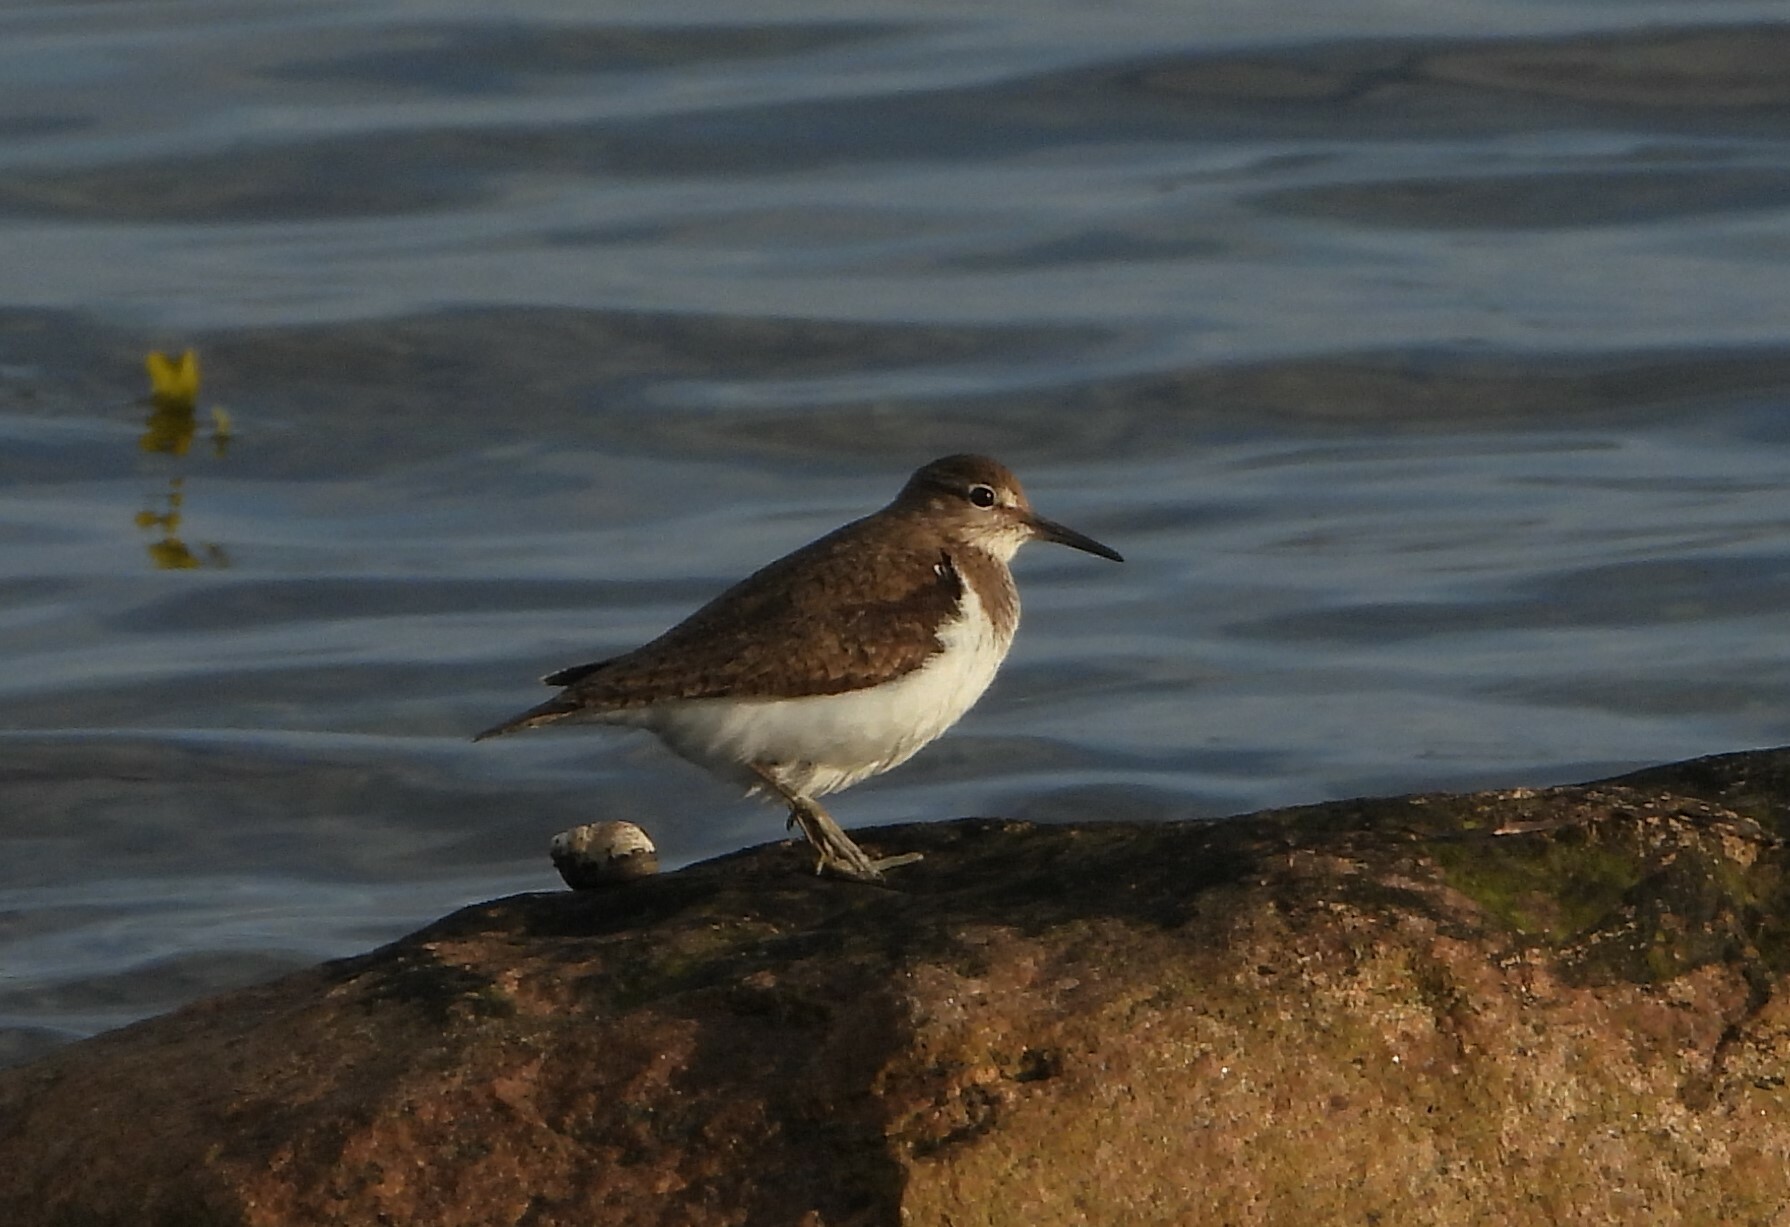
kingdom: Animalia
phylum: Chordata
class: Aves
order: Charadriiformes
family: Scolopacidae
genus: Actitis
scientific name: Actitis hypoleucos
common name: Common sandpiper
